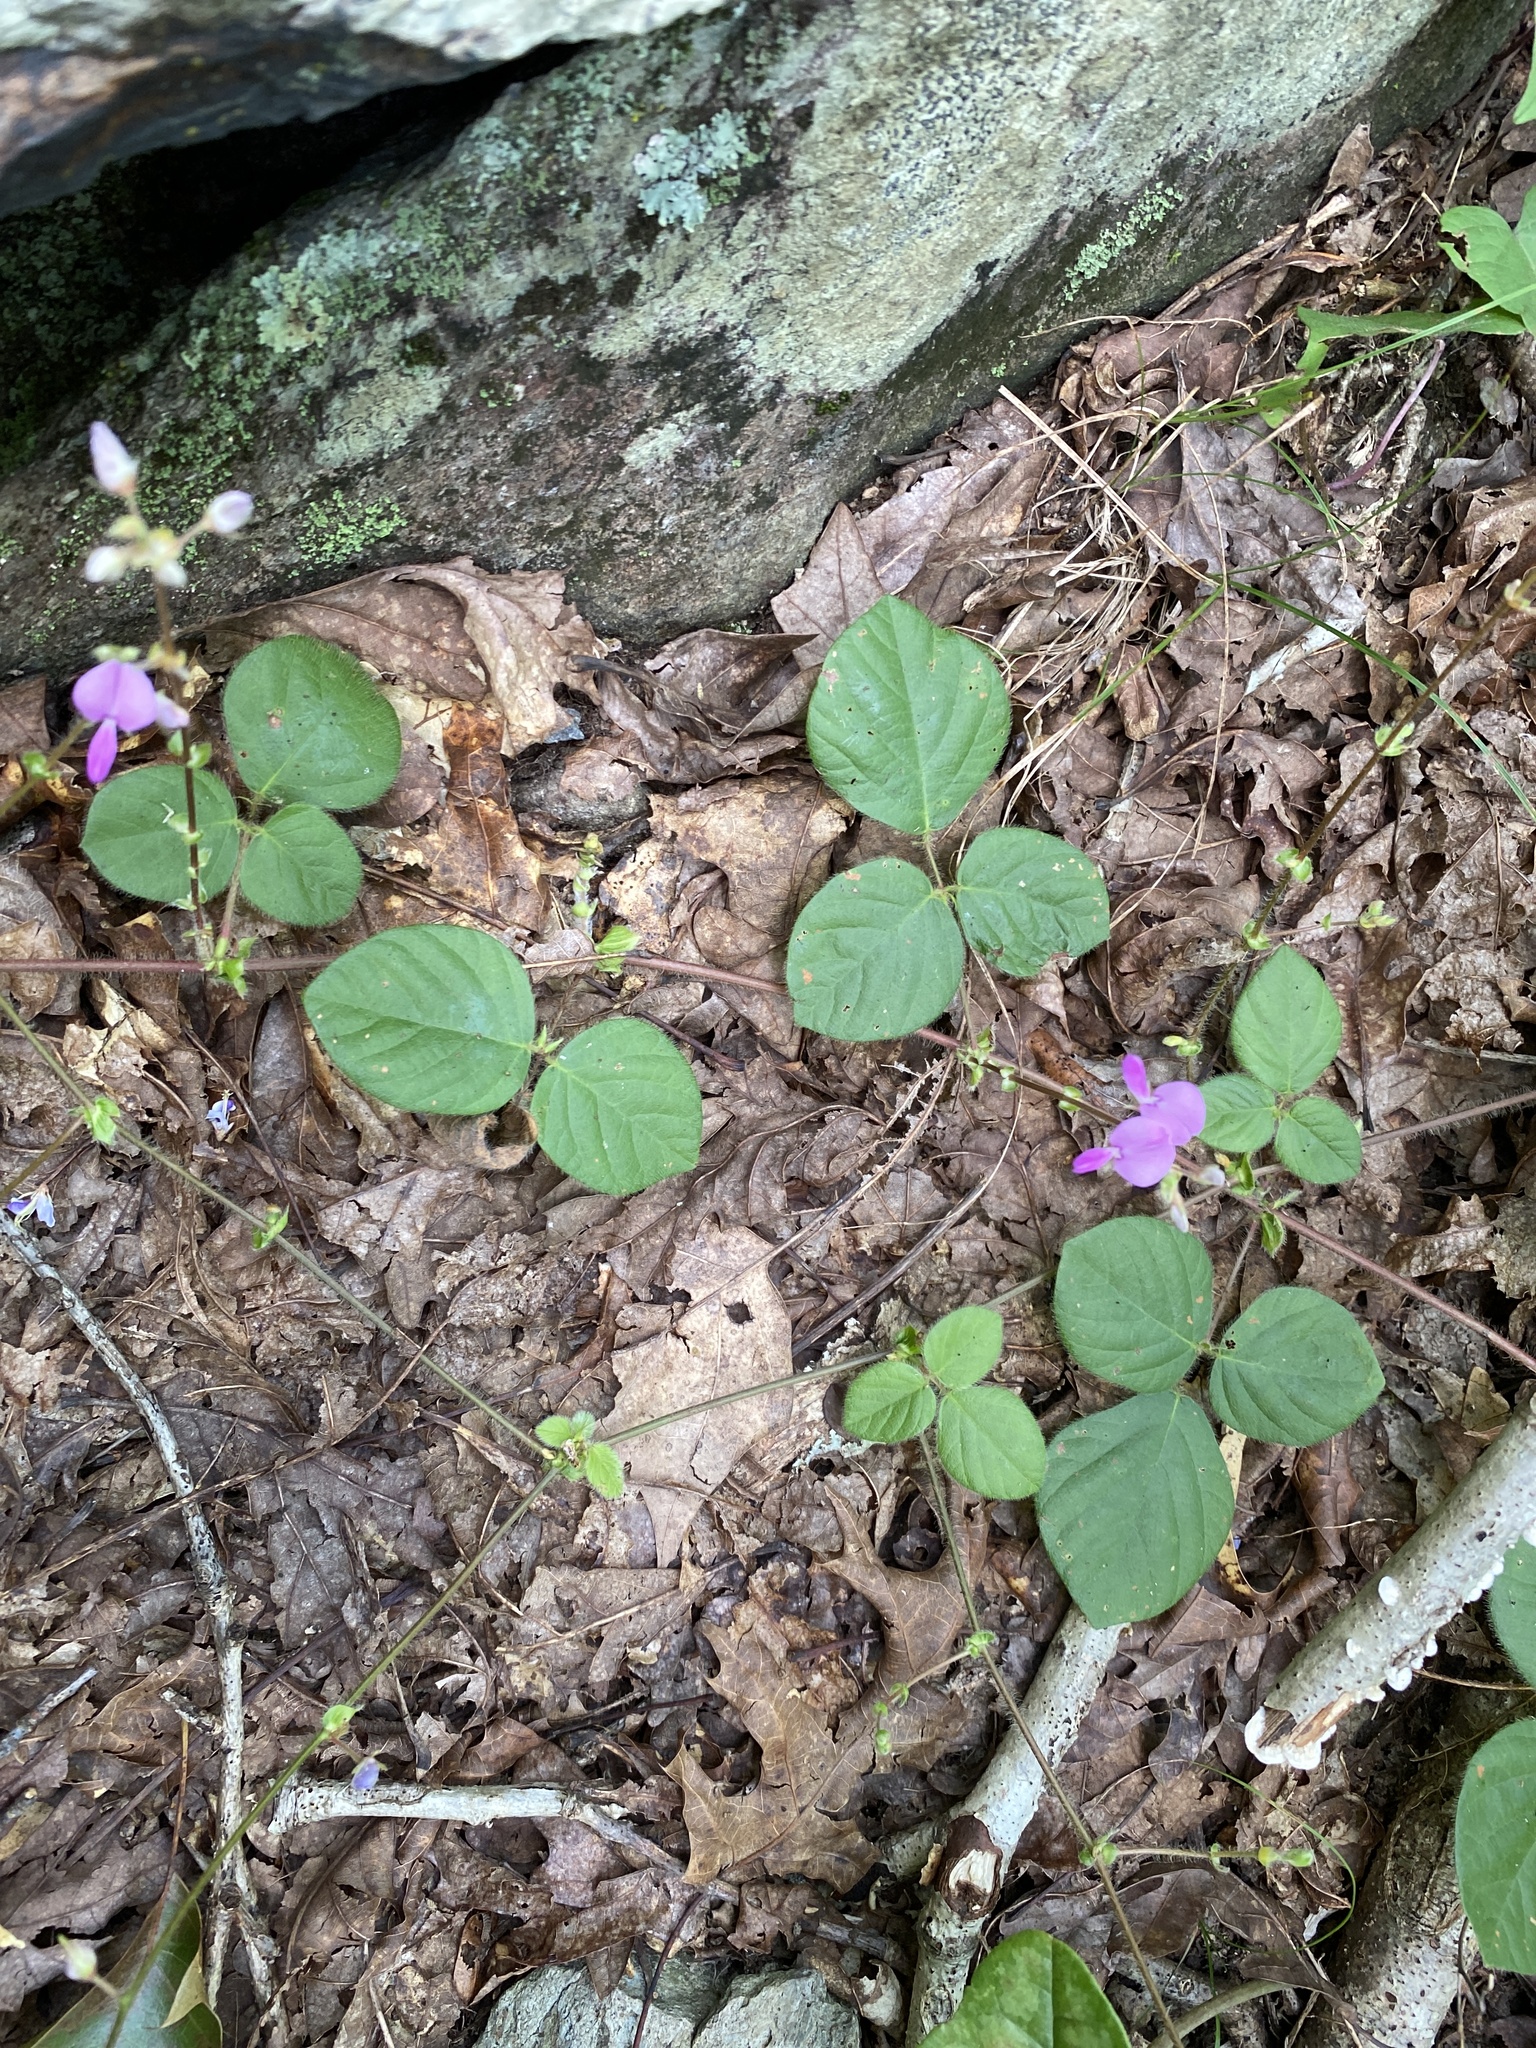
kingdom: Plantae
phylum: Tracheophyta
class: Magnoliopsida
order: Fabales
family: Fabaceae
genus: Desmodium
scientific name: Desmodium rotundifolium
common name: Dollarleaf
